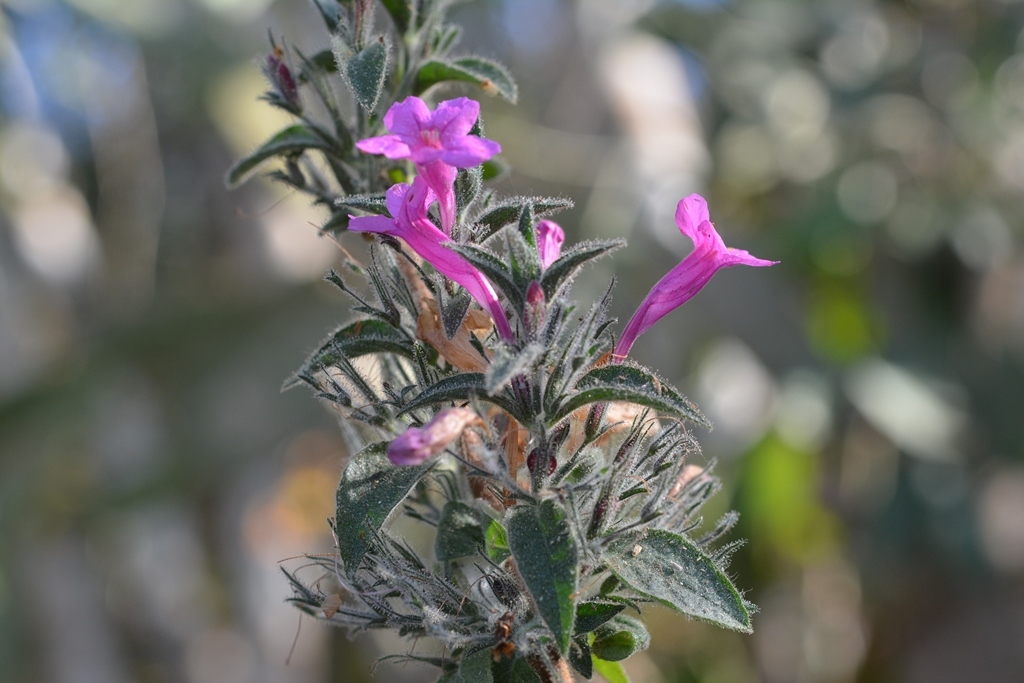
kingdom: Plantae
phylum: Tracheophyta
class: Magnoliopsida
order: Lamiales
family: Acanthaceae
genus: Ruellia
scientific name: Ruellia inundata
